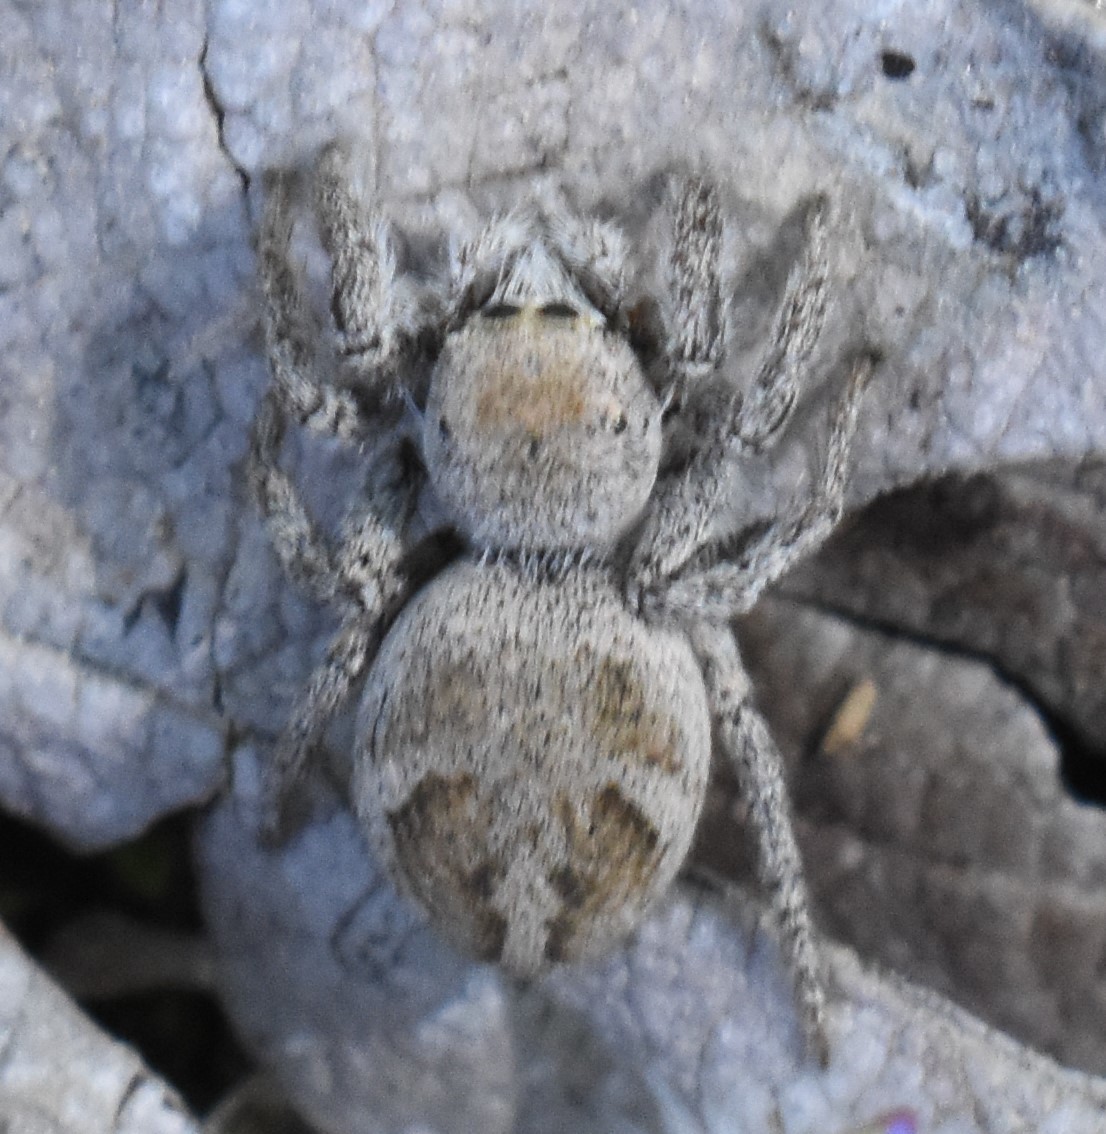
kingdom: Animalia
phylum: Arthropoda
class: Arachnida
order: Araneae
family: Salticidae
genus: Habronattus
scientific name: Habronattus festus
